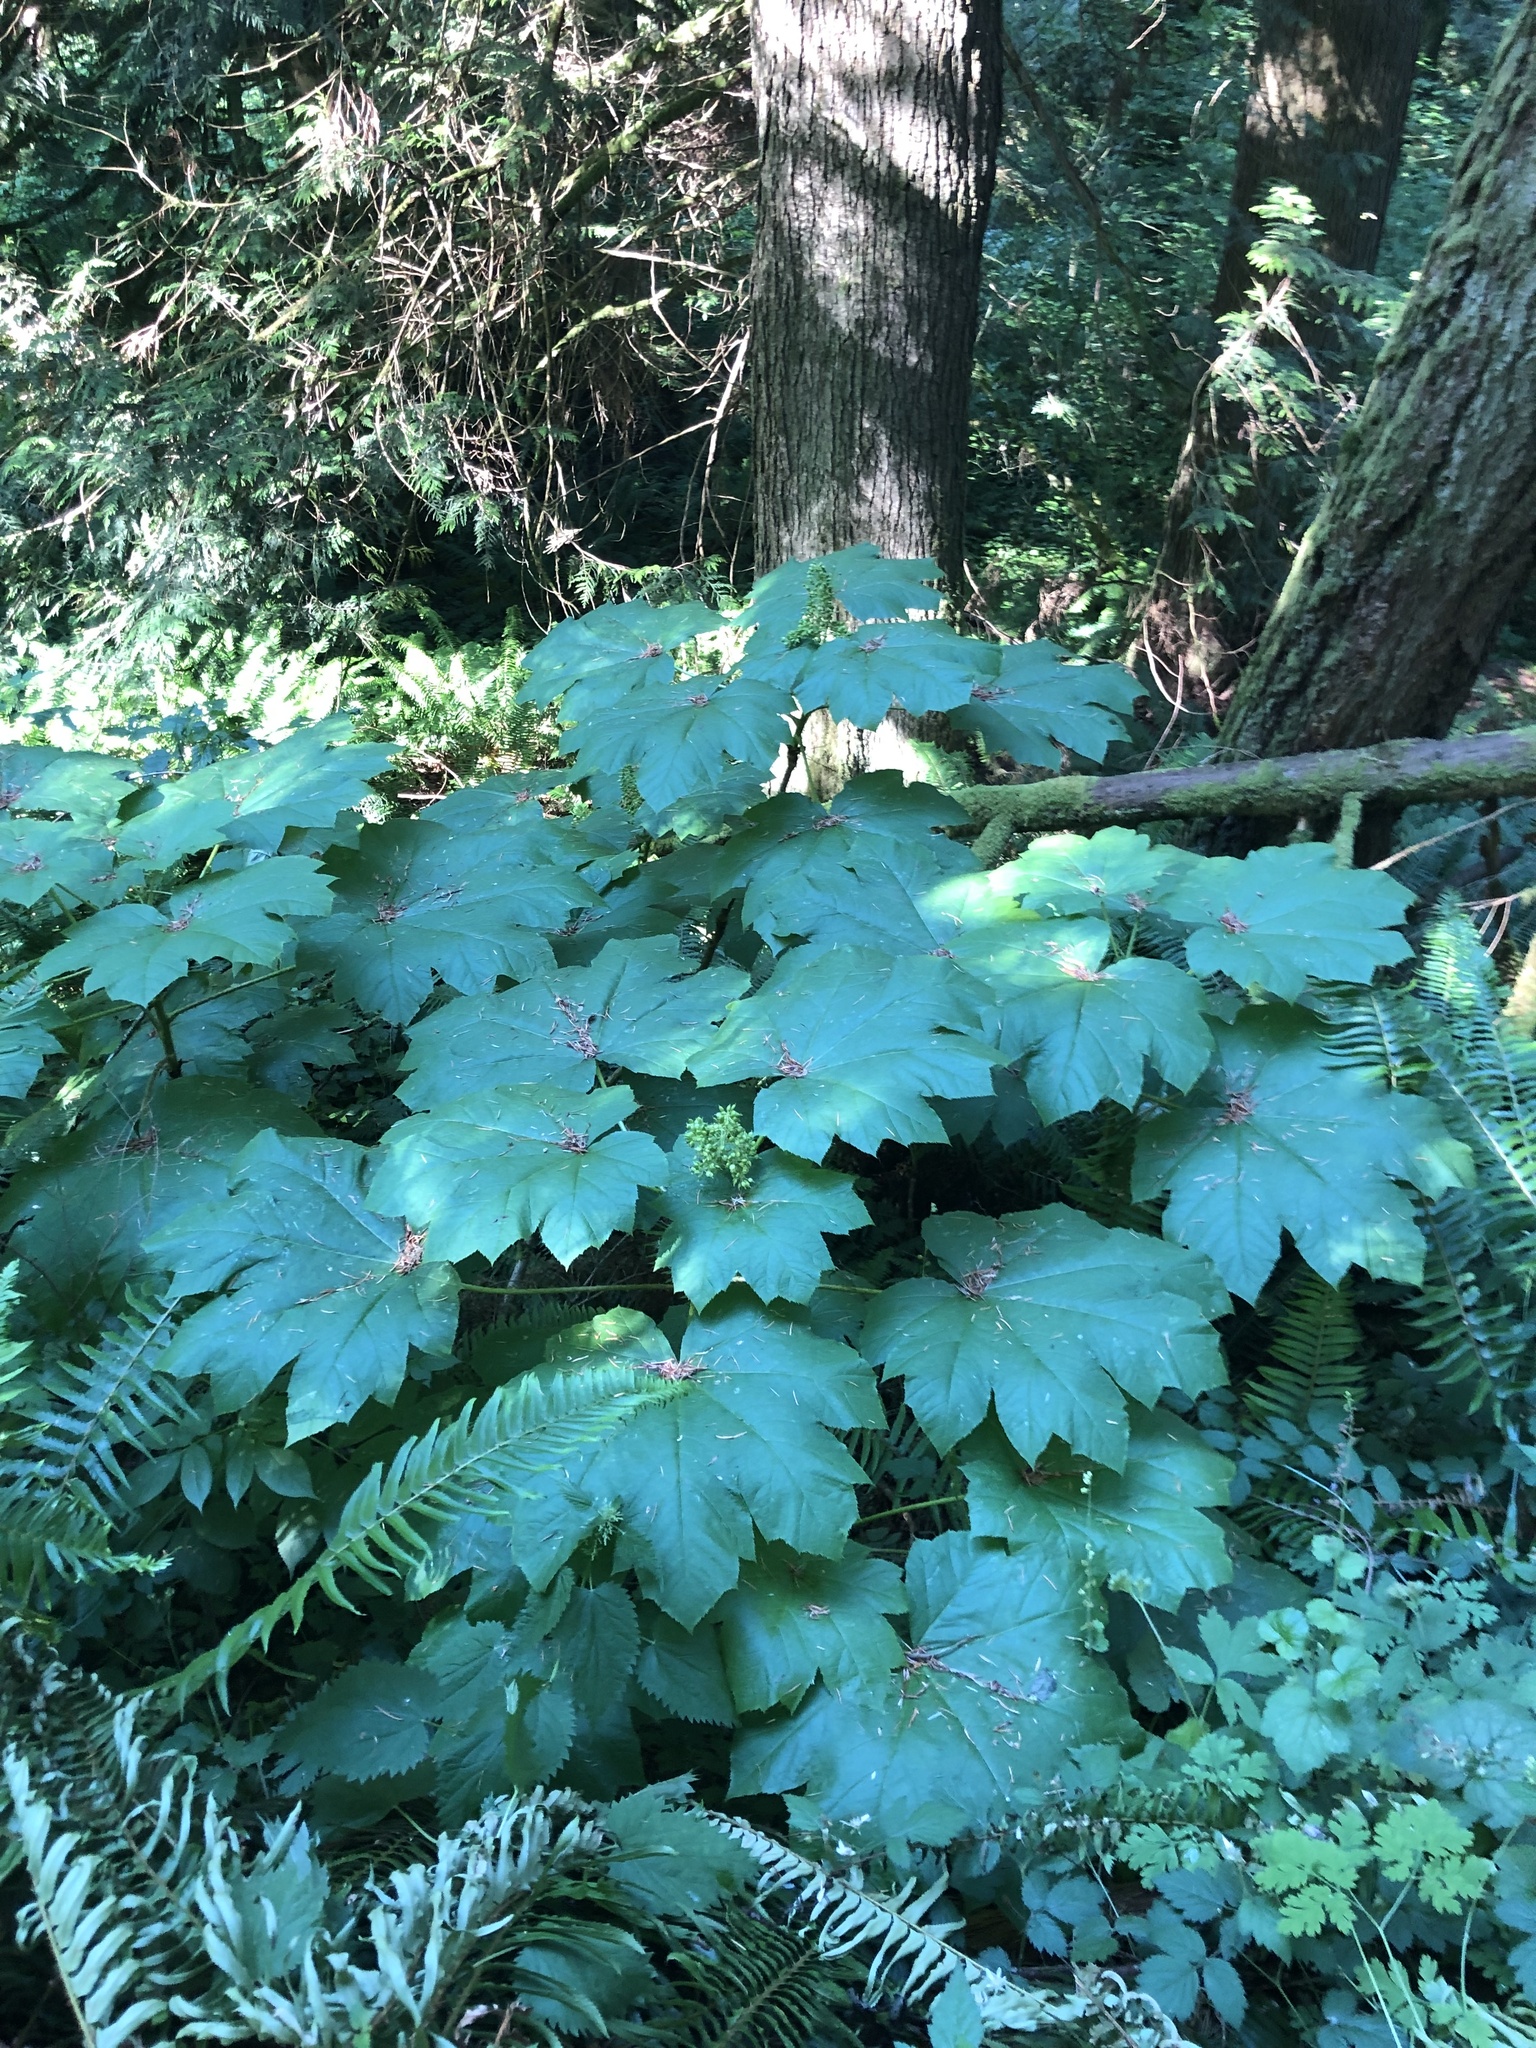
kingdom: Plantae
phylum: Tracheophyta
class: Magnoliopsida
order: Apiales
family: Araliaceae
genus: Oplopanax
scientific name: Oplopanax horridus
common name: Devil's walking-stick
